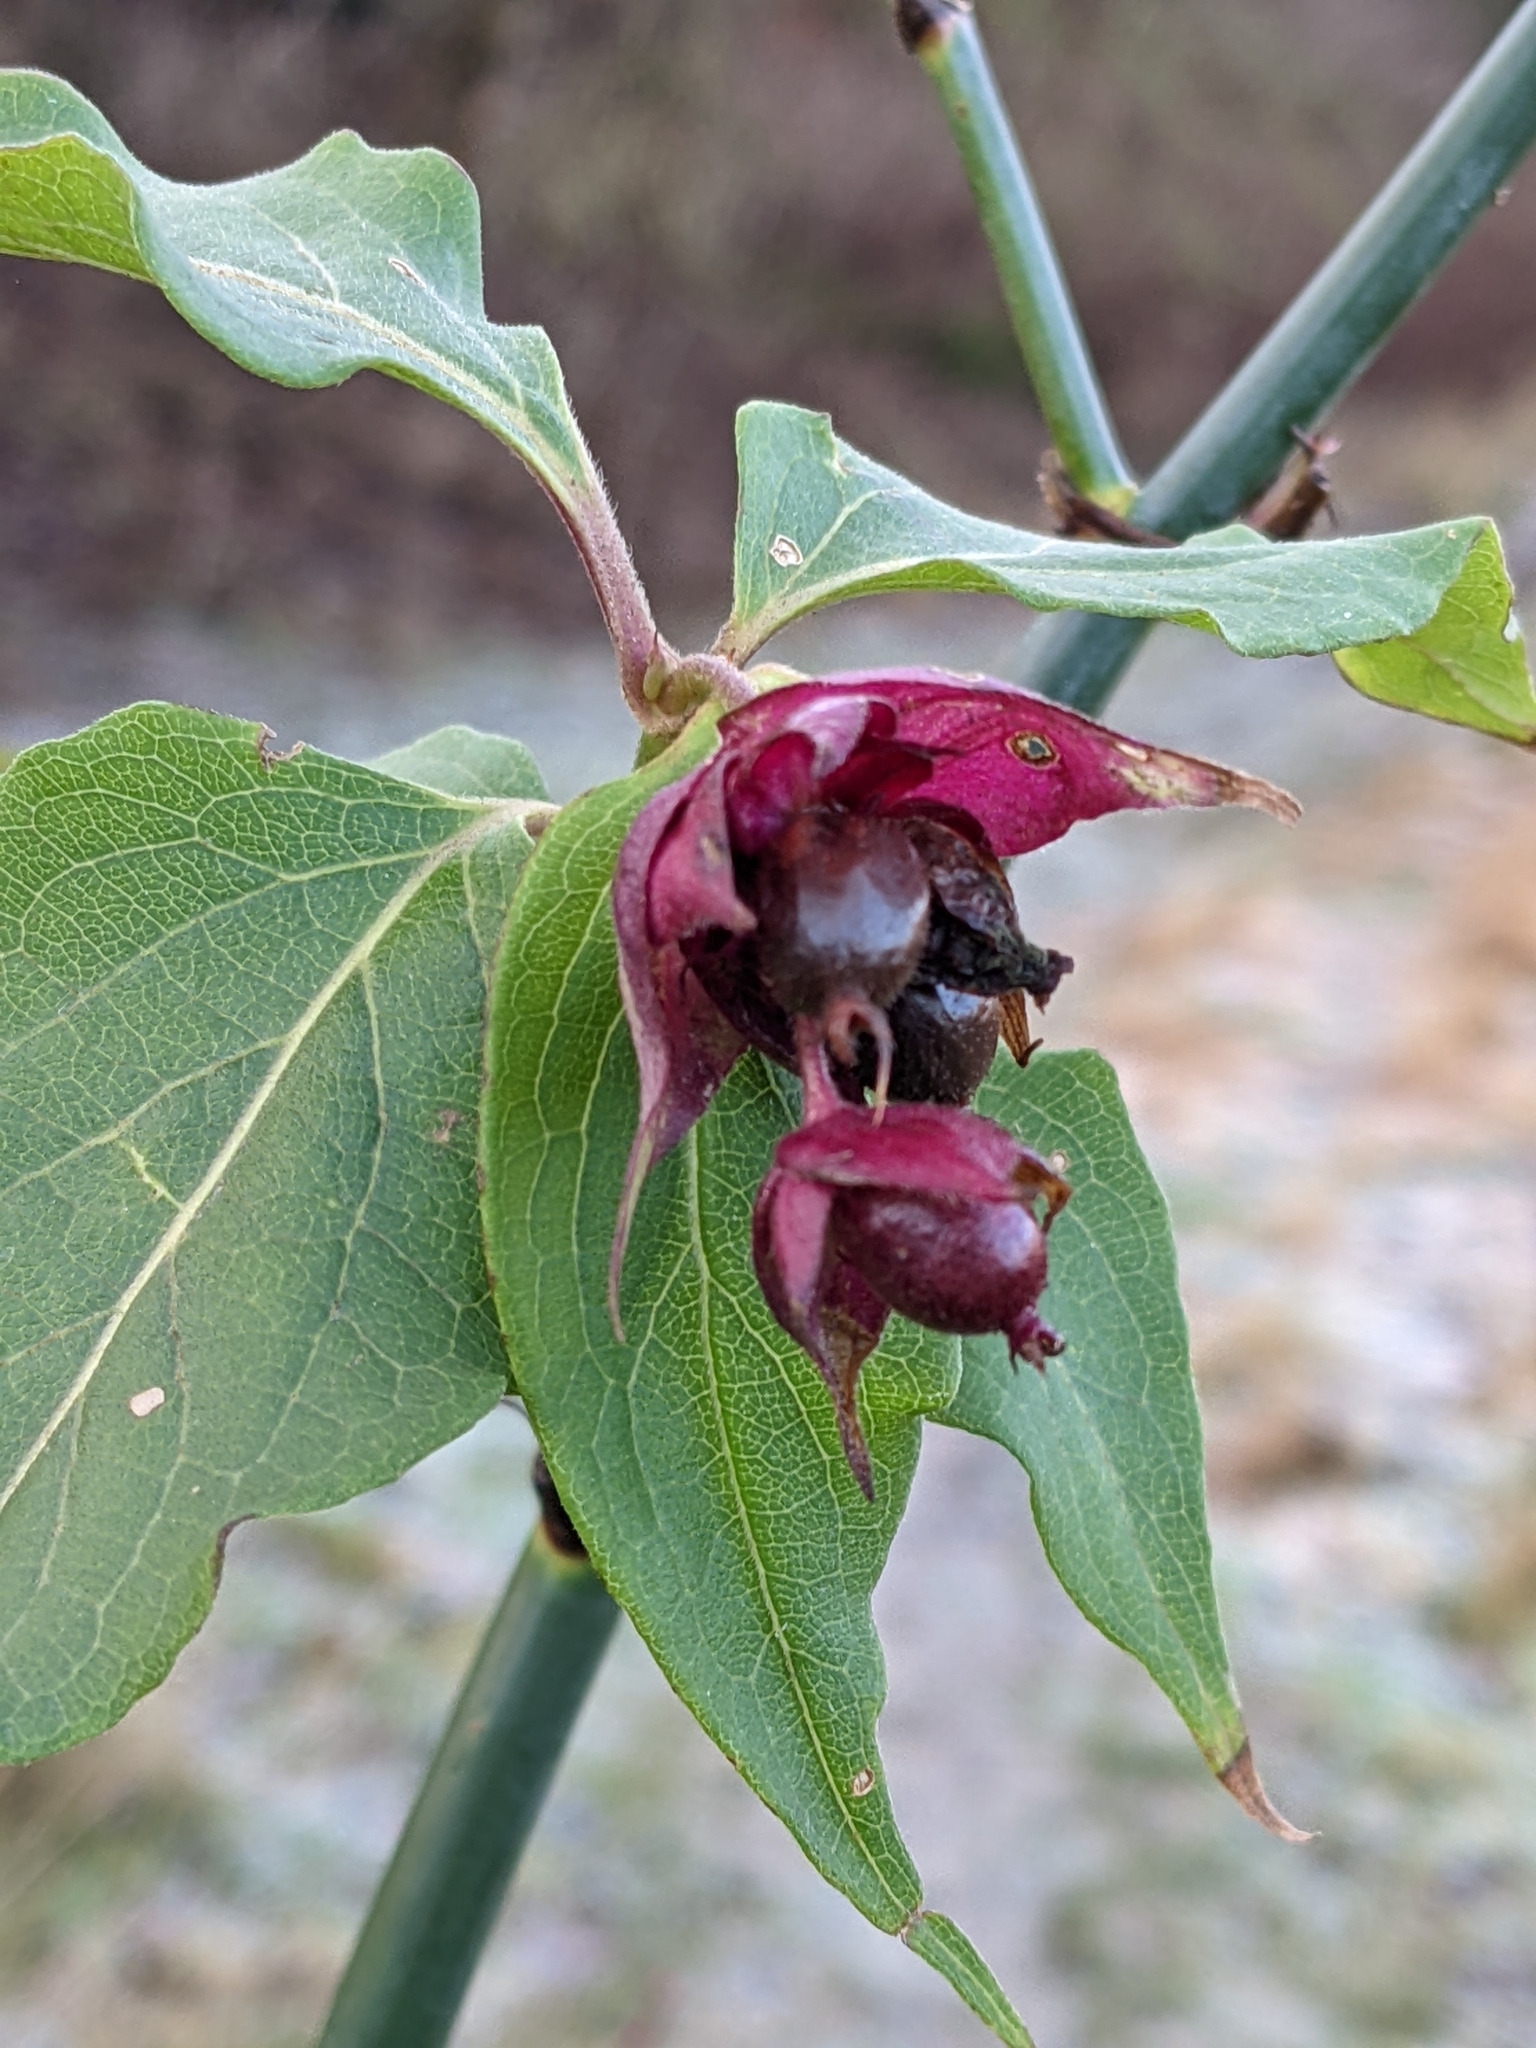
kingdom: Plantae
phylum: Tracheophyta
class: Magnoliopsida
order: Dipsacales
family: Caprifoliaceae
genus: Leycesteria
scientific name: Leycesteria formosa
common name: Himalayan honeysuckle
